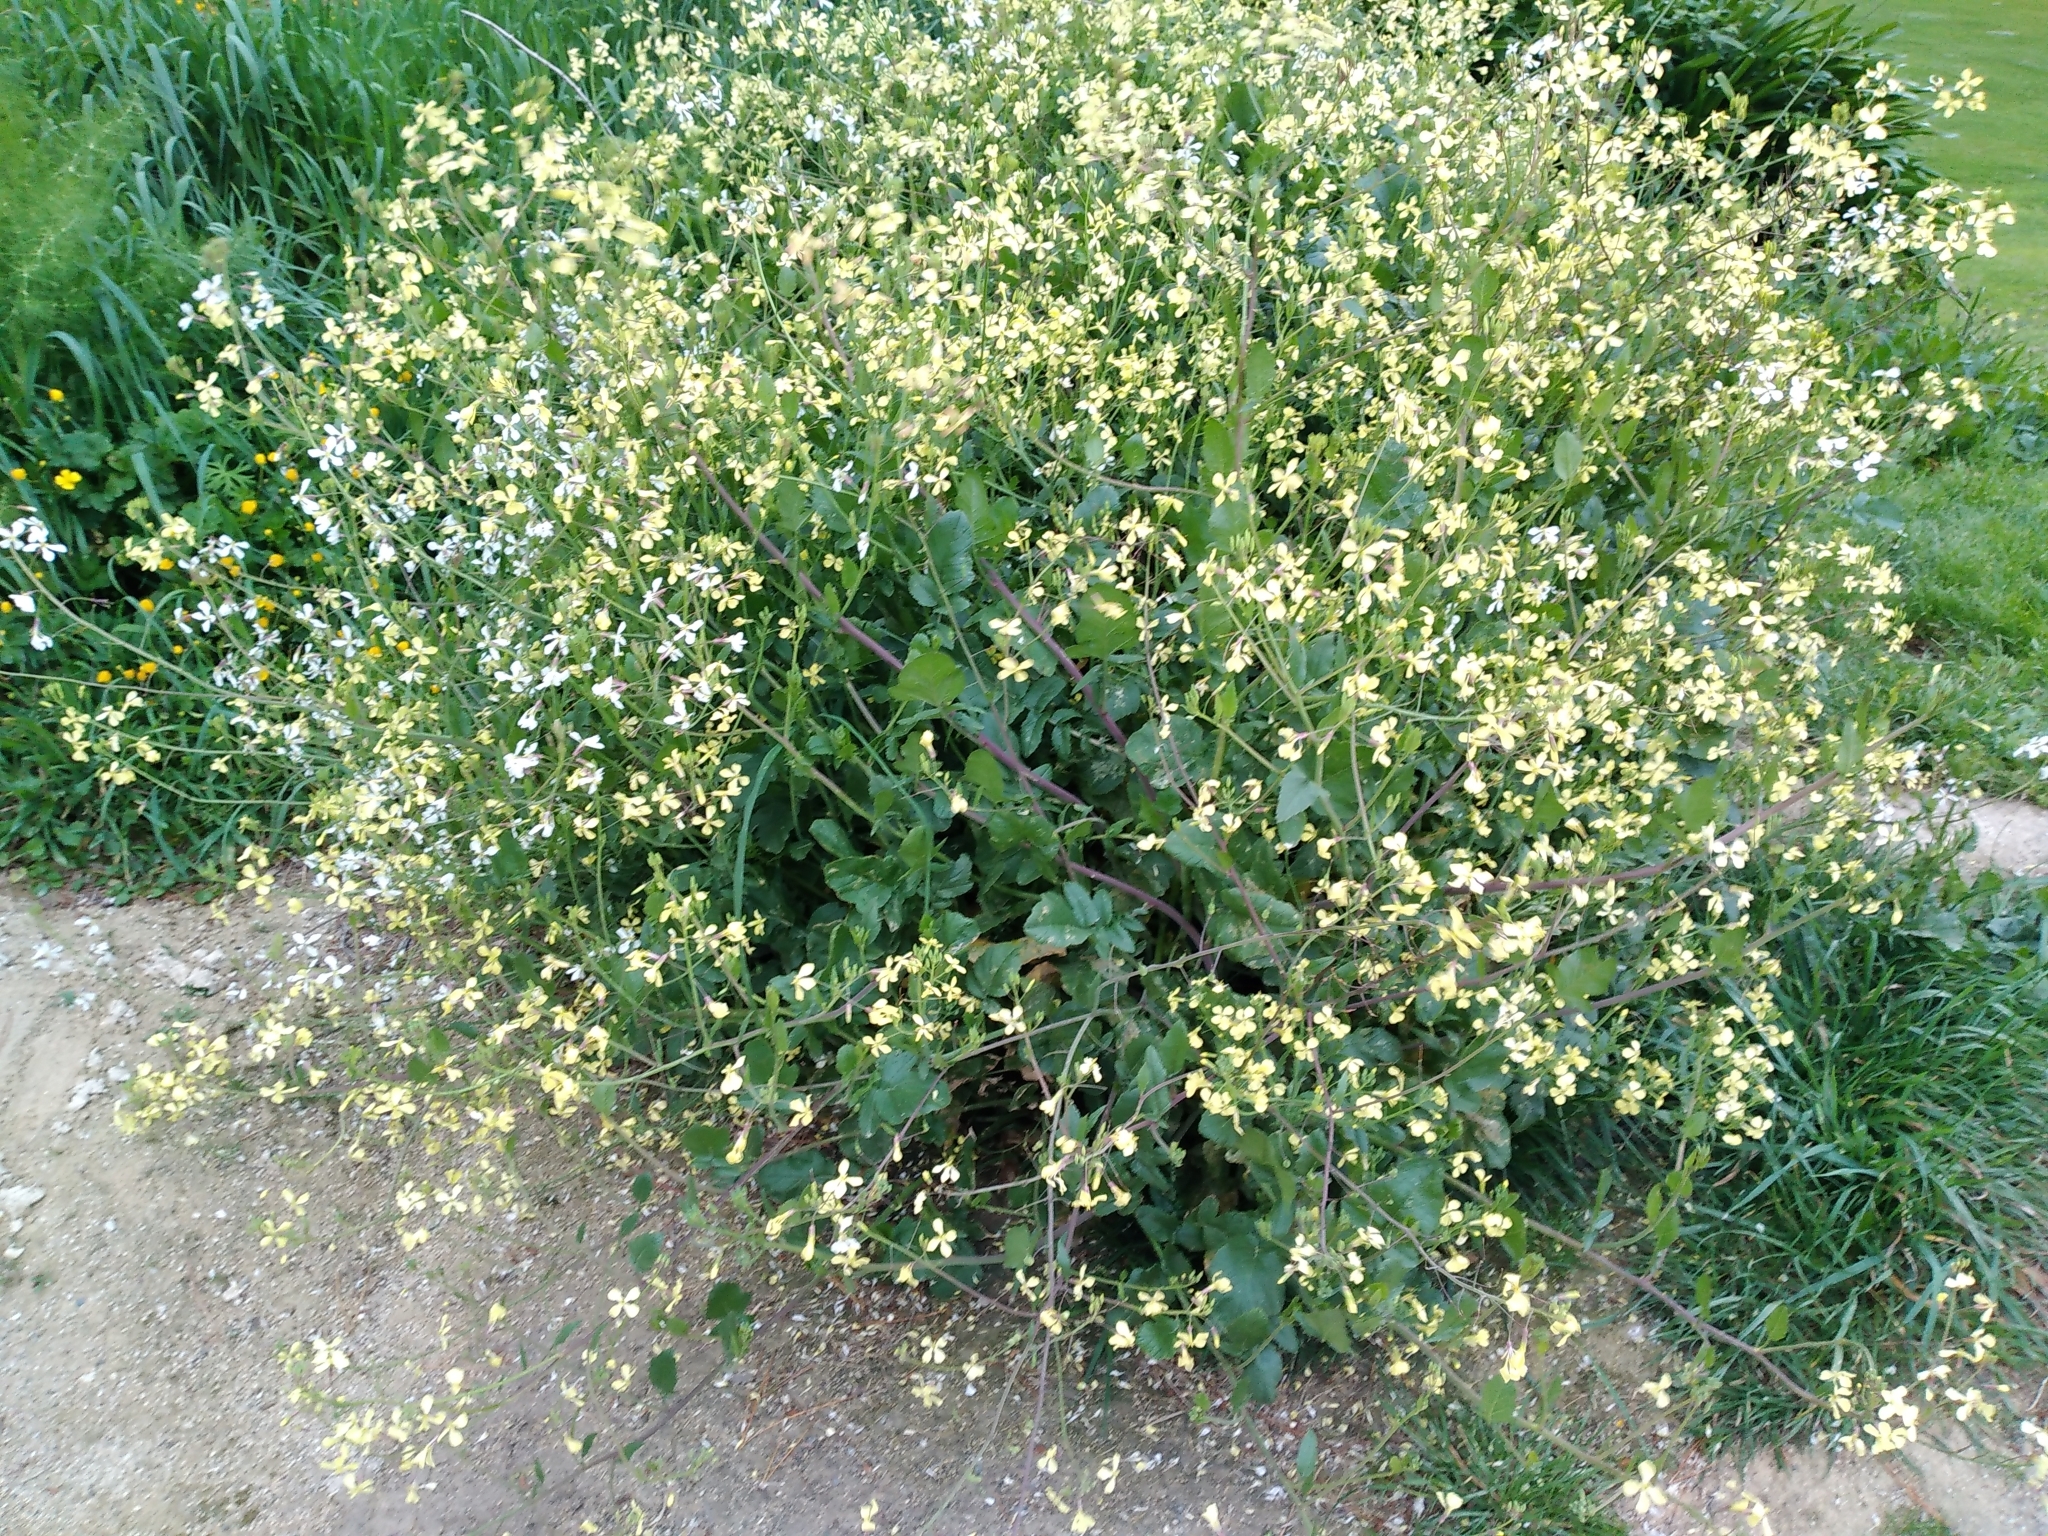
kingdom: Plantae
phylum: Tracheophyta
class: Magnoliopsida
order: Brassicales
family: Brassicaceae
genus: Raphanus
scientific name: Raphanus raphanistrum
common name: Wild radish
